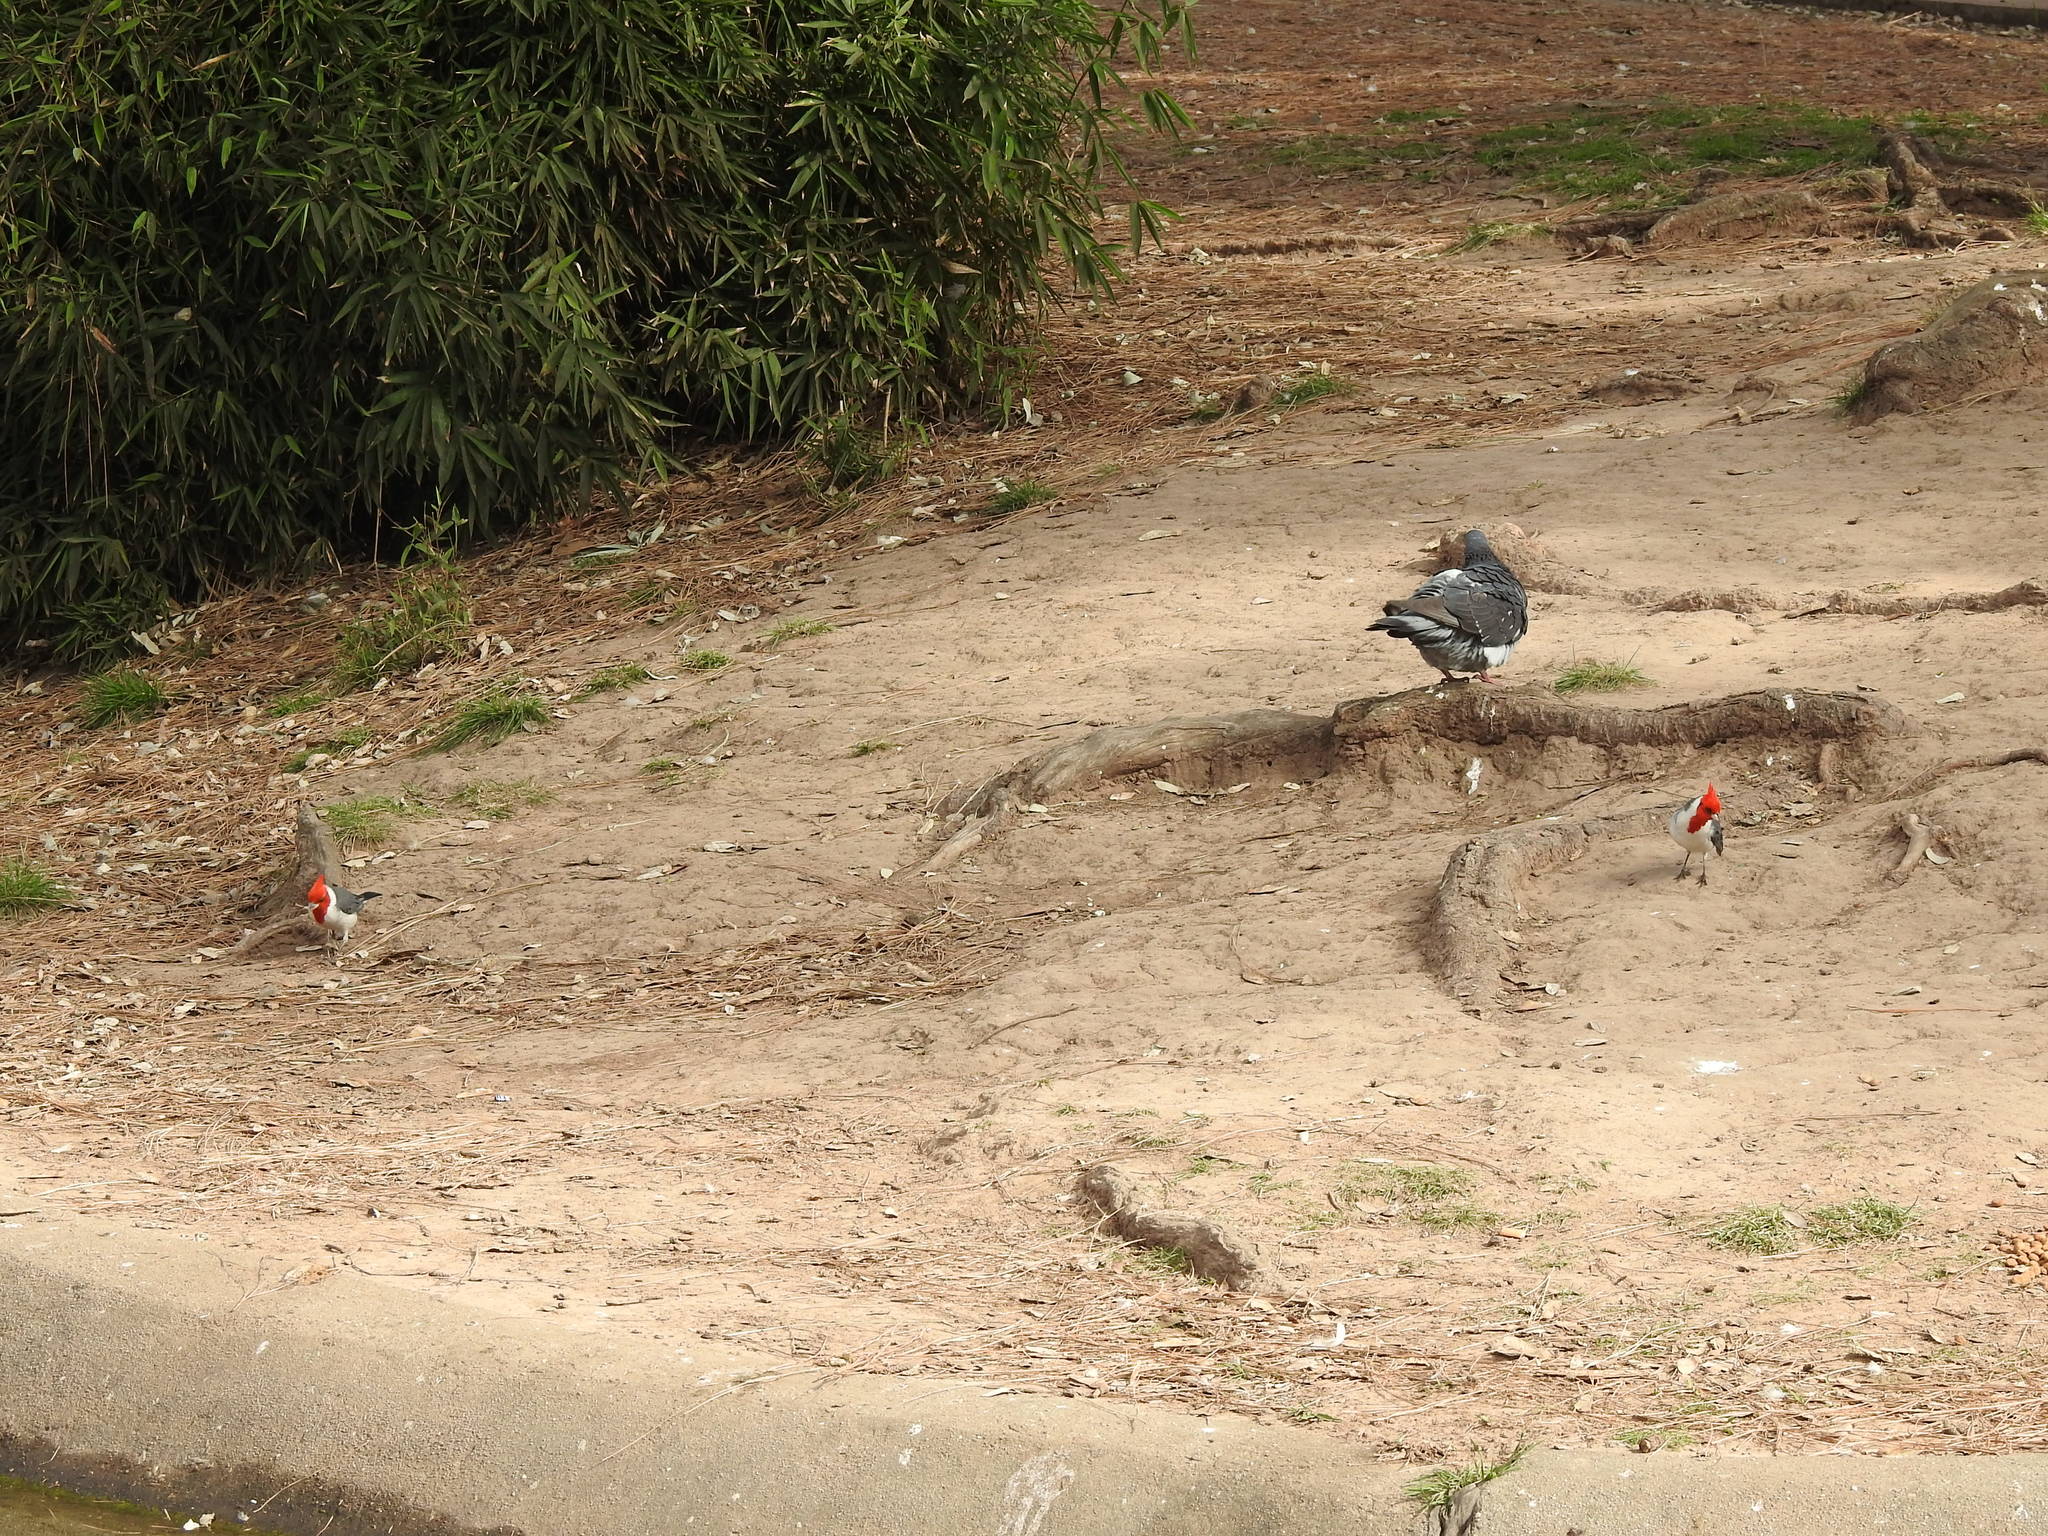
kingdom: Animalia
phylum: Chordata
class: Aves
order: Passeriformes
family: Thraupidae
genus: Paroaria
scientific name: Paroaria coronata
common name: Red-crested cardinal
